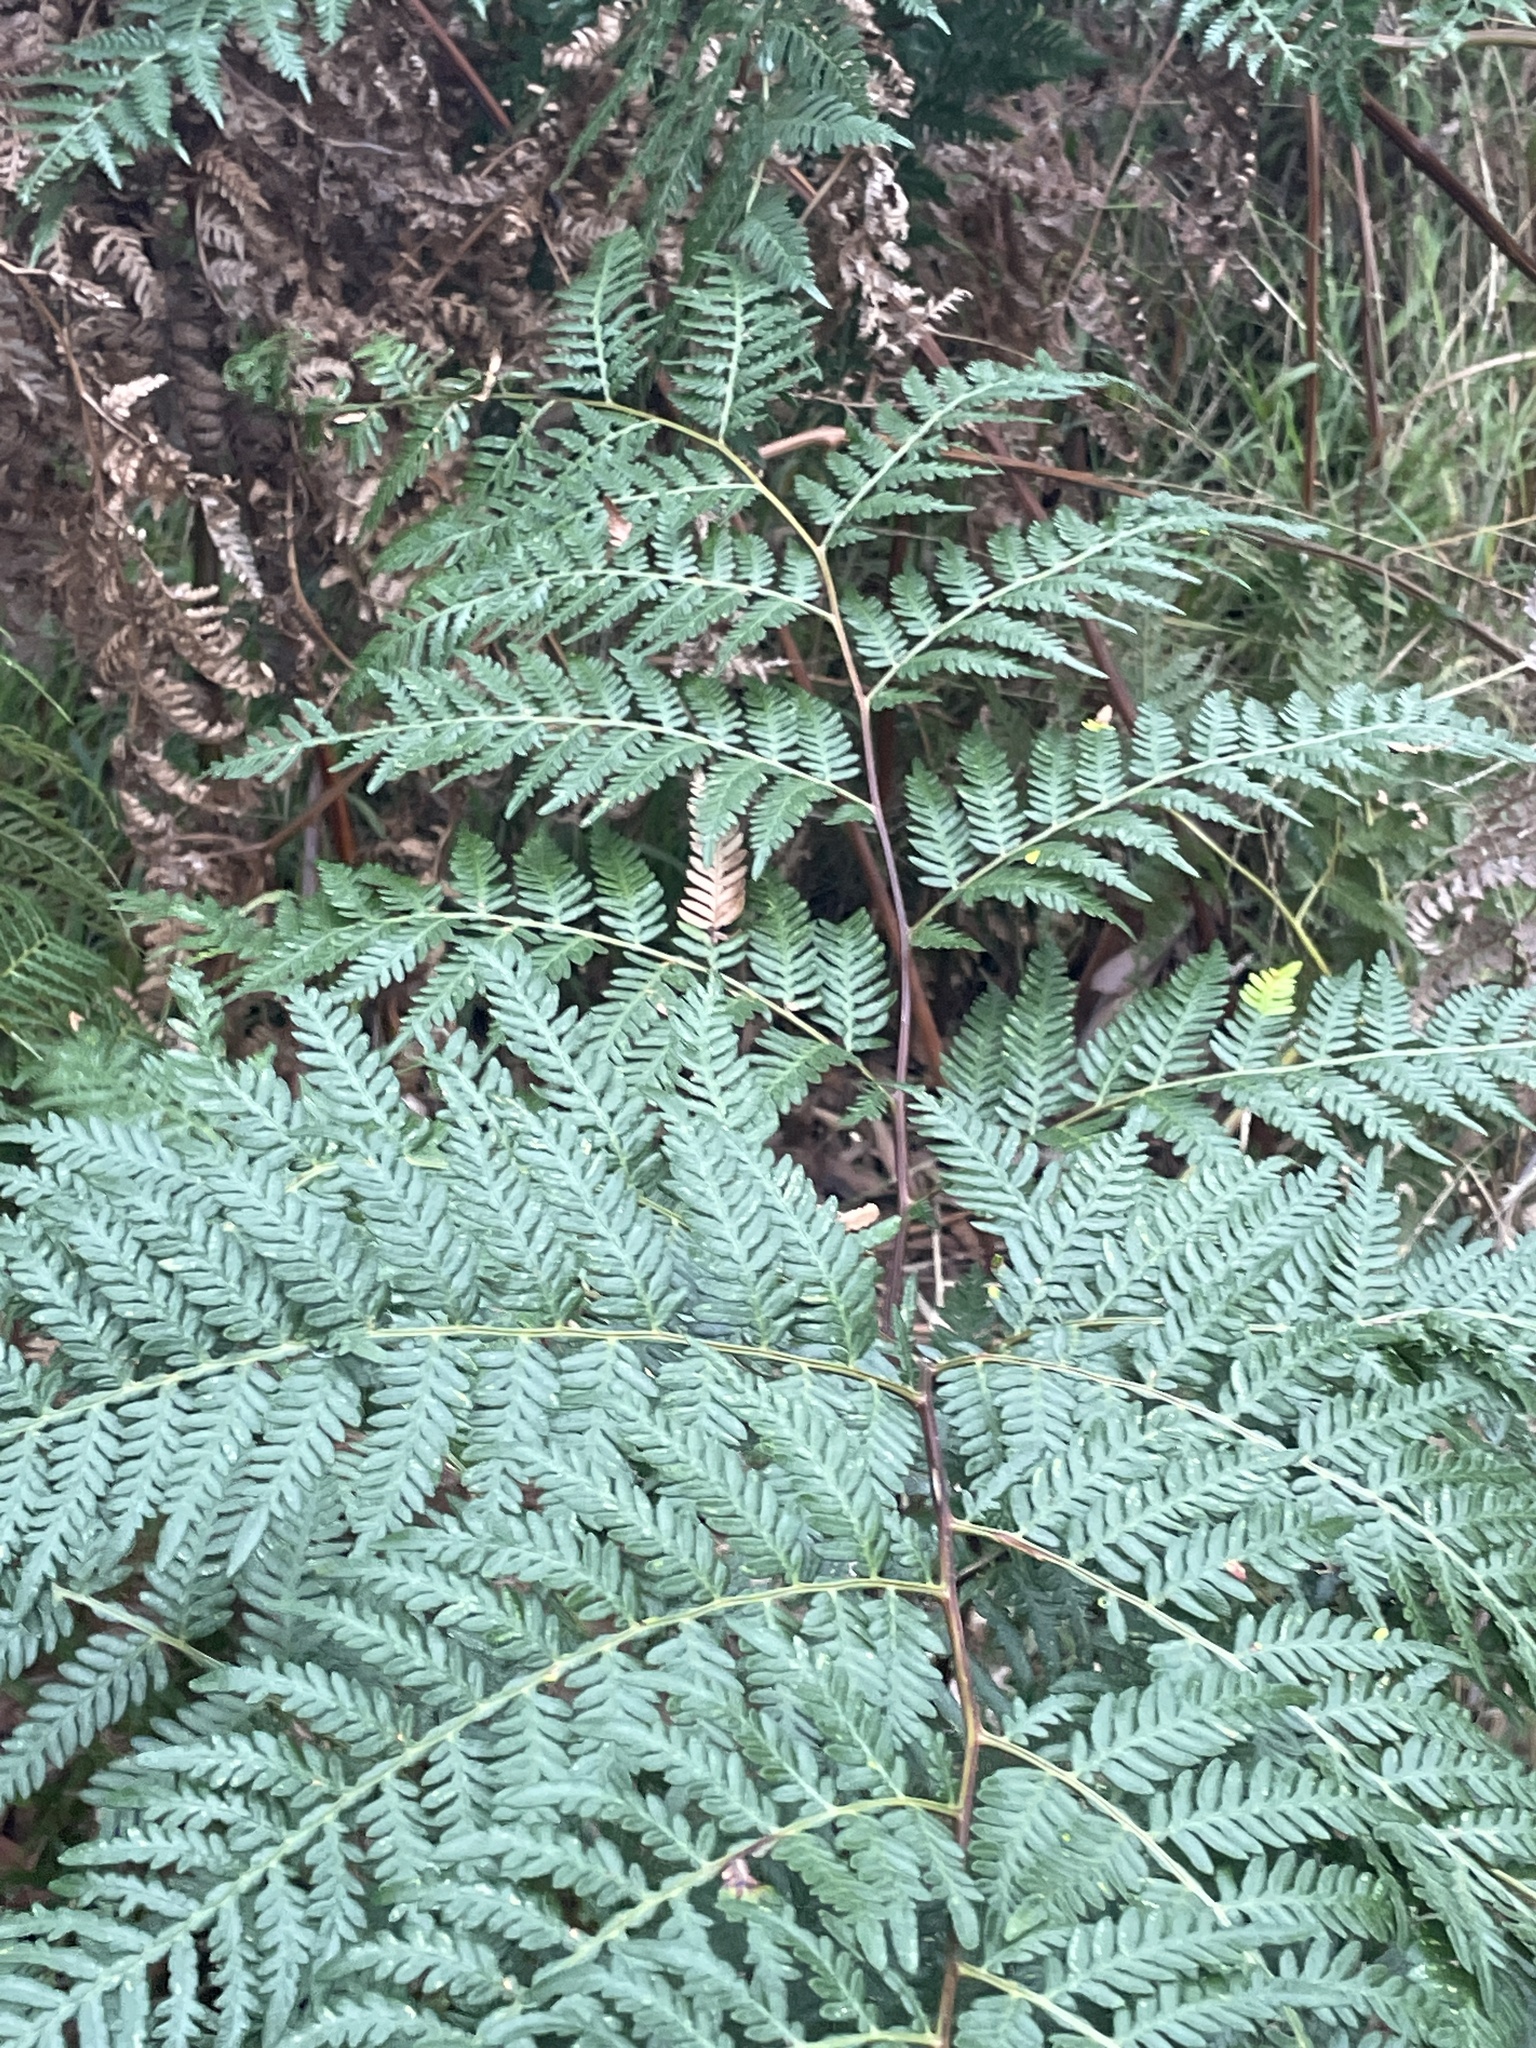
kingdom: Plantae
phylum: Tracheophyta
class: Polypodiopsida
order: Polypodiales
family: Dennstaedtiaceae
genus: Pteridium
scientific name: Pteridium esculentum
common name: Bracken fern
